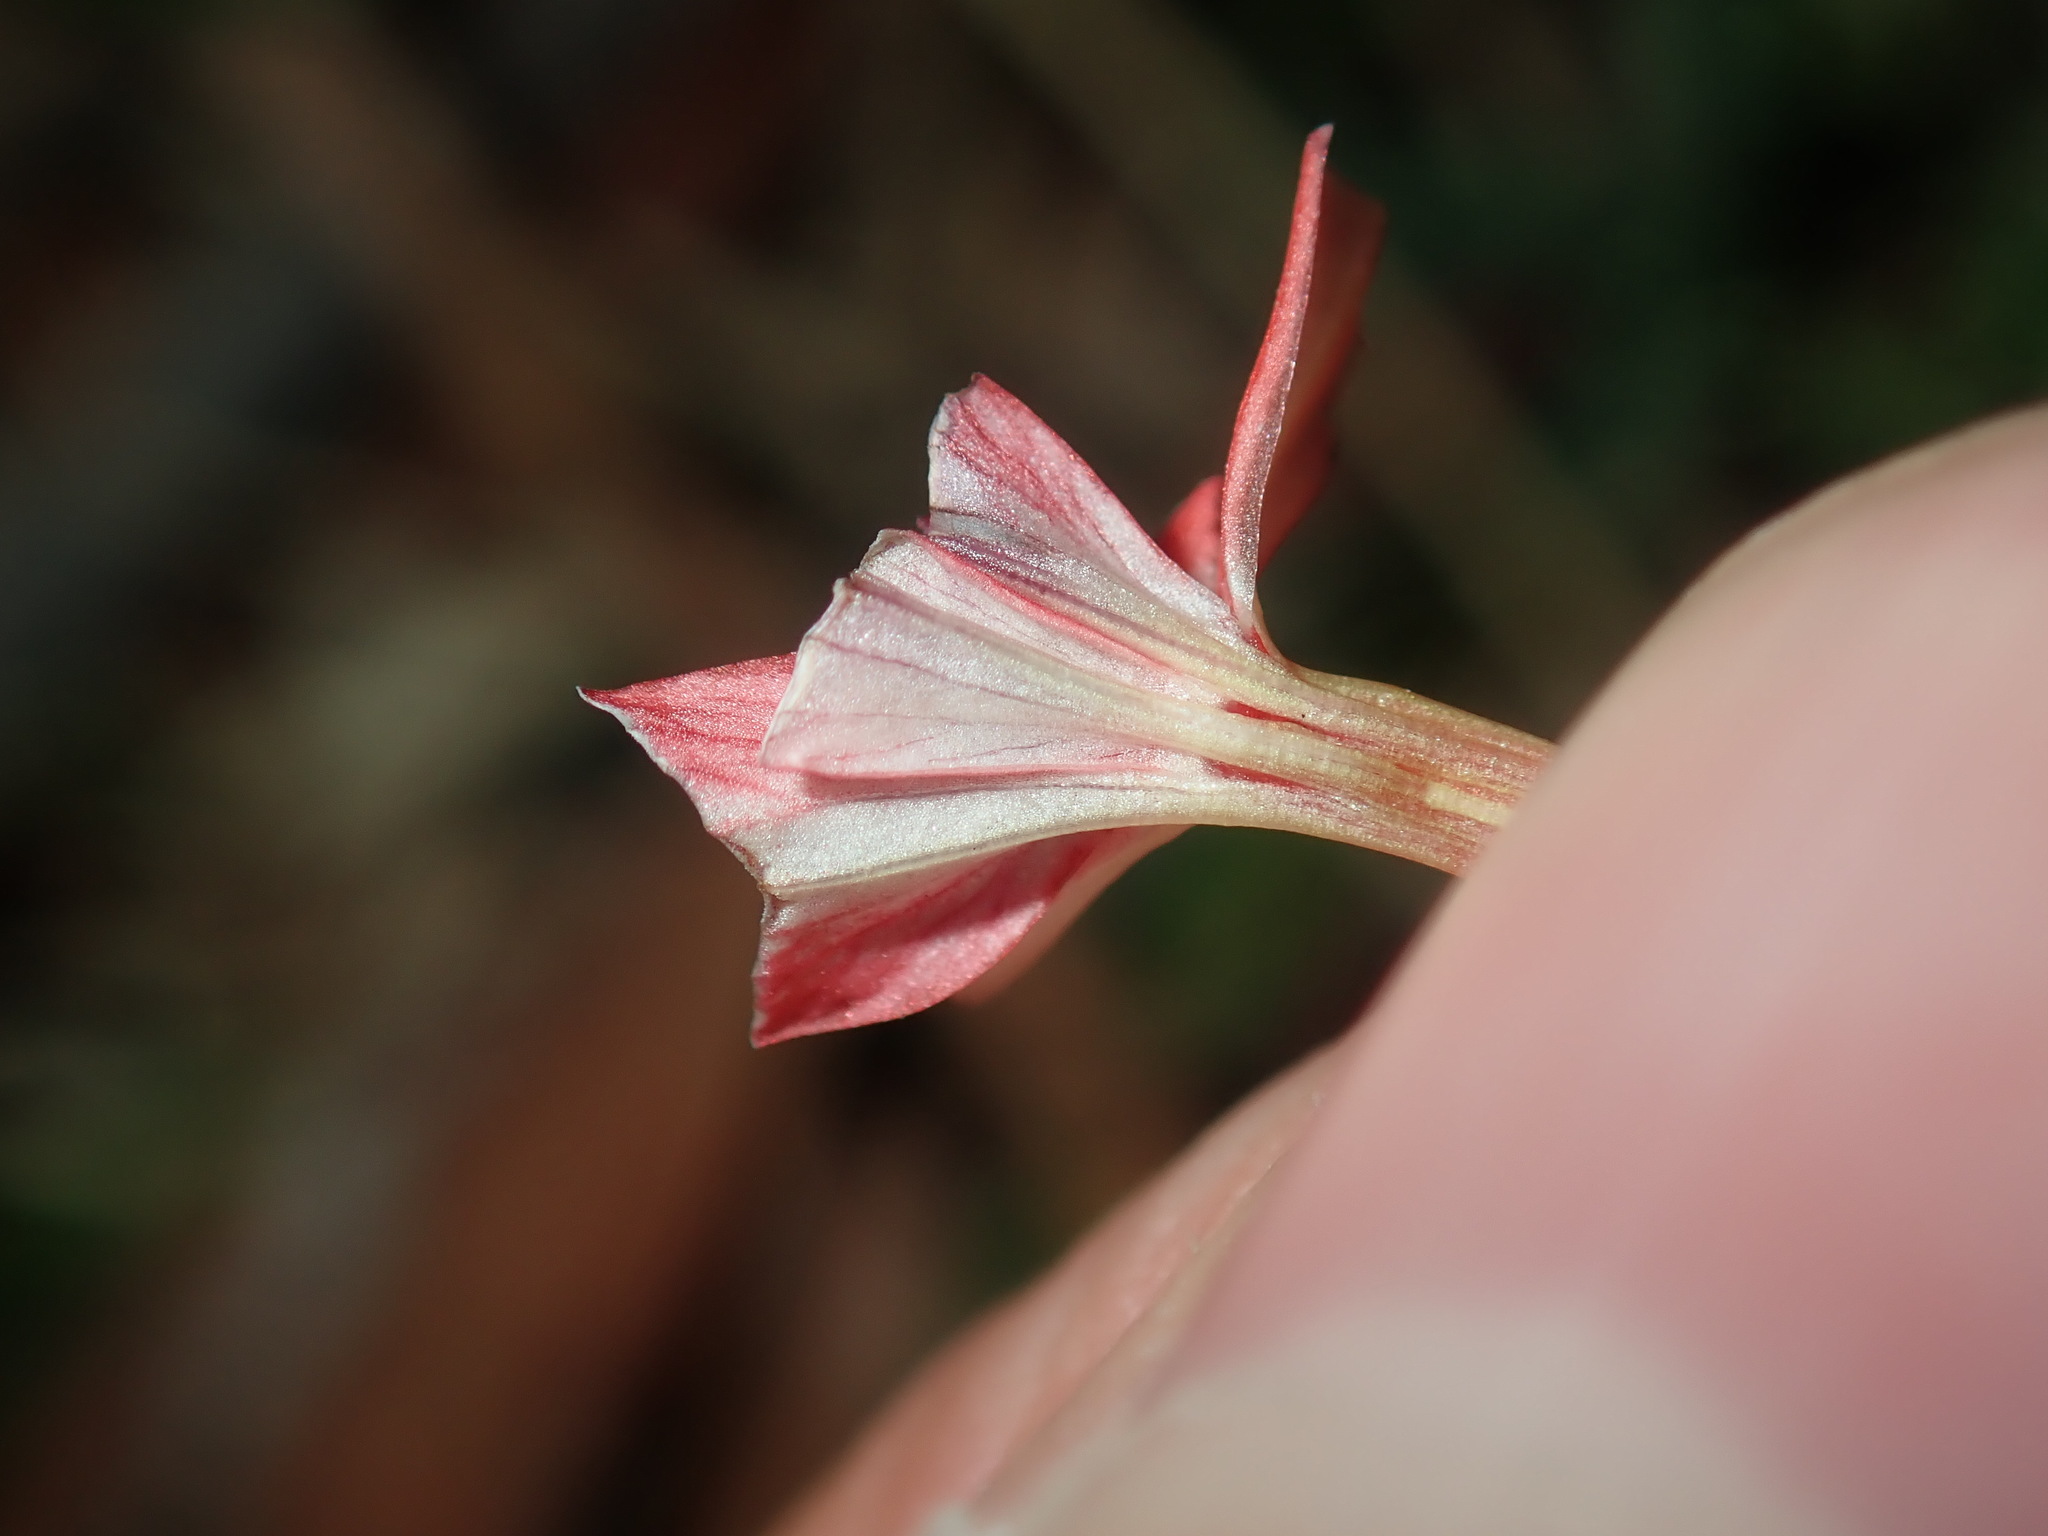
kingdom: Plantae
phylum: Tracheophyta
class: Liliopsida
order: Asparagales
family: Iridaceae
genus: Freesia
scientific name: Freesia laxa
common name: False freesia
